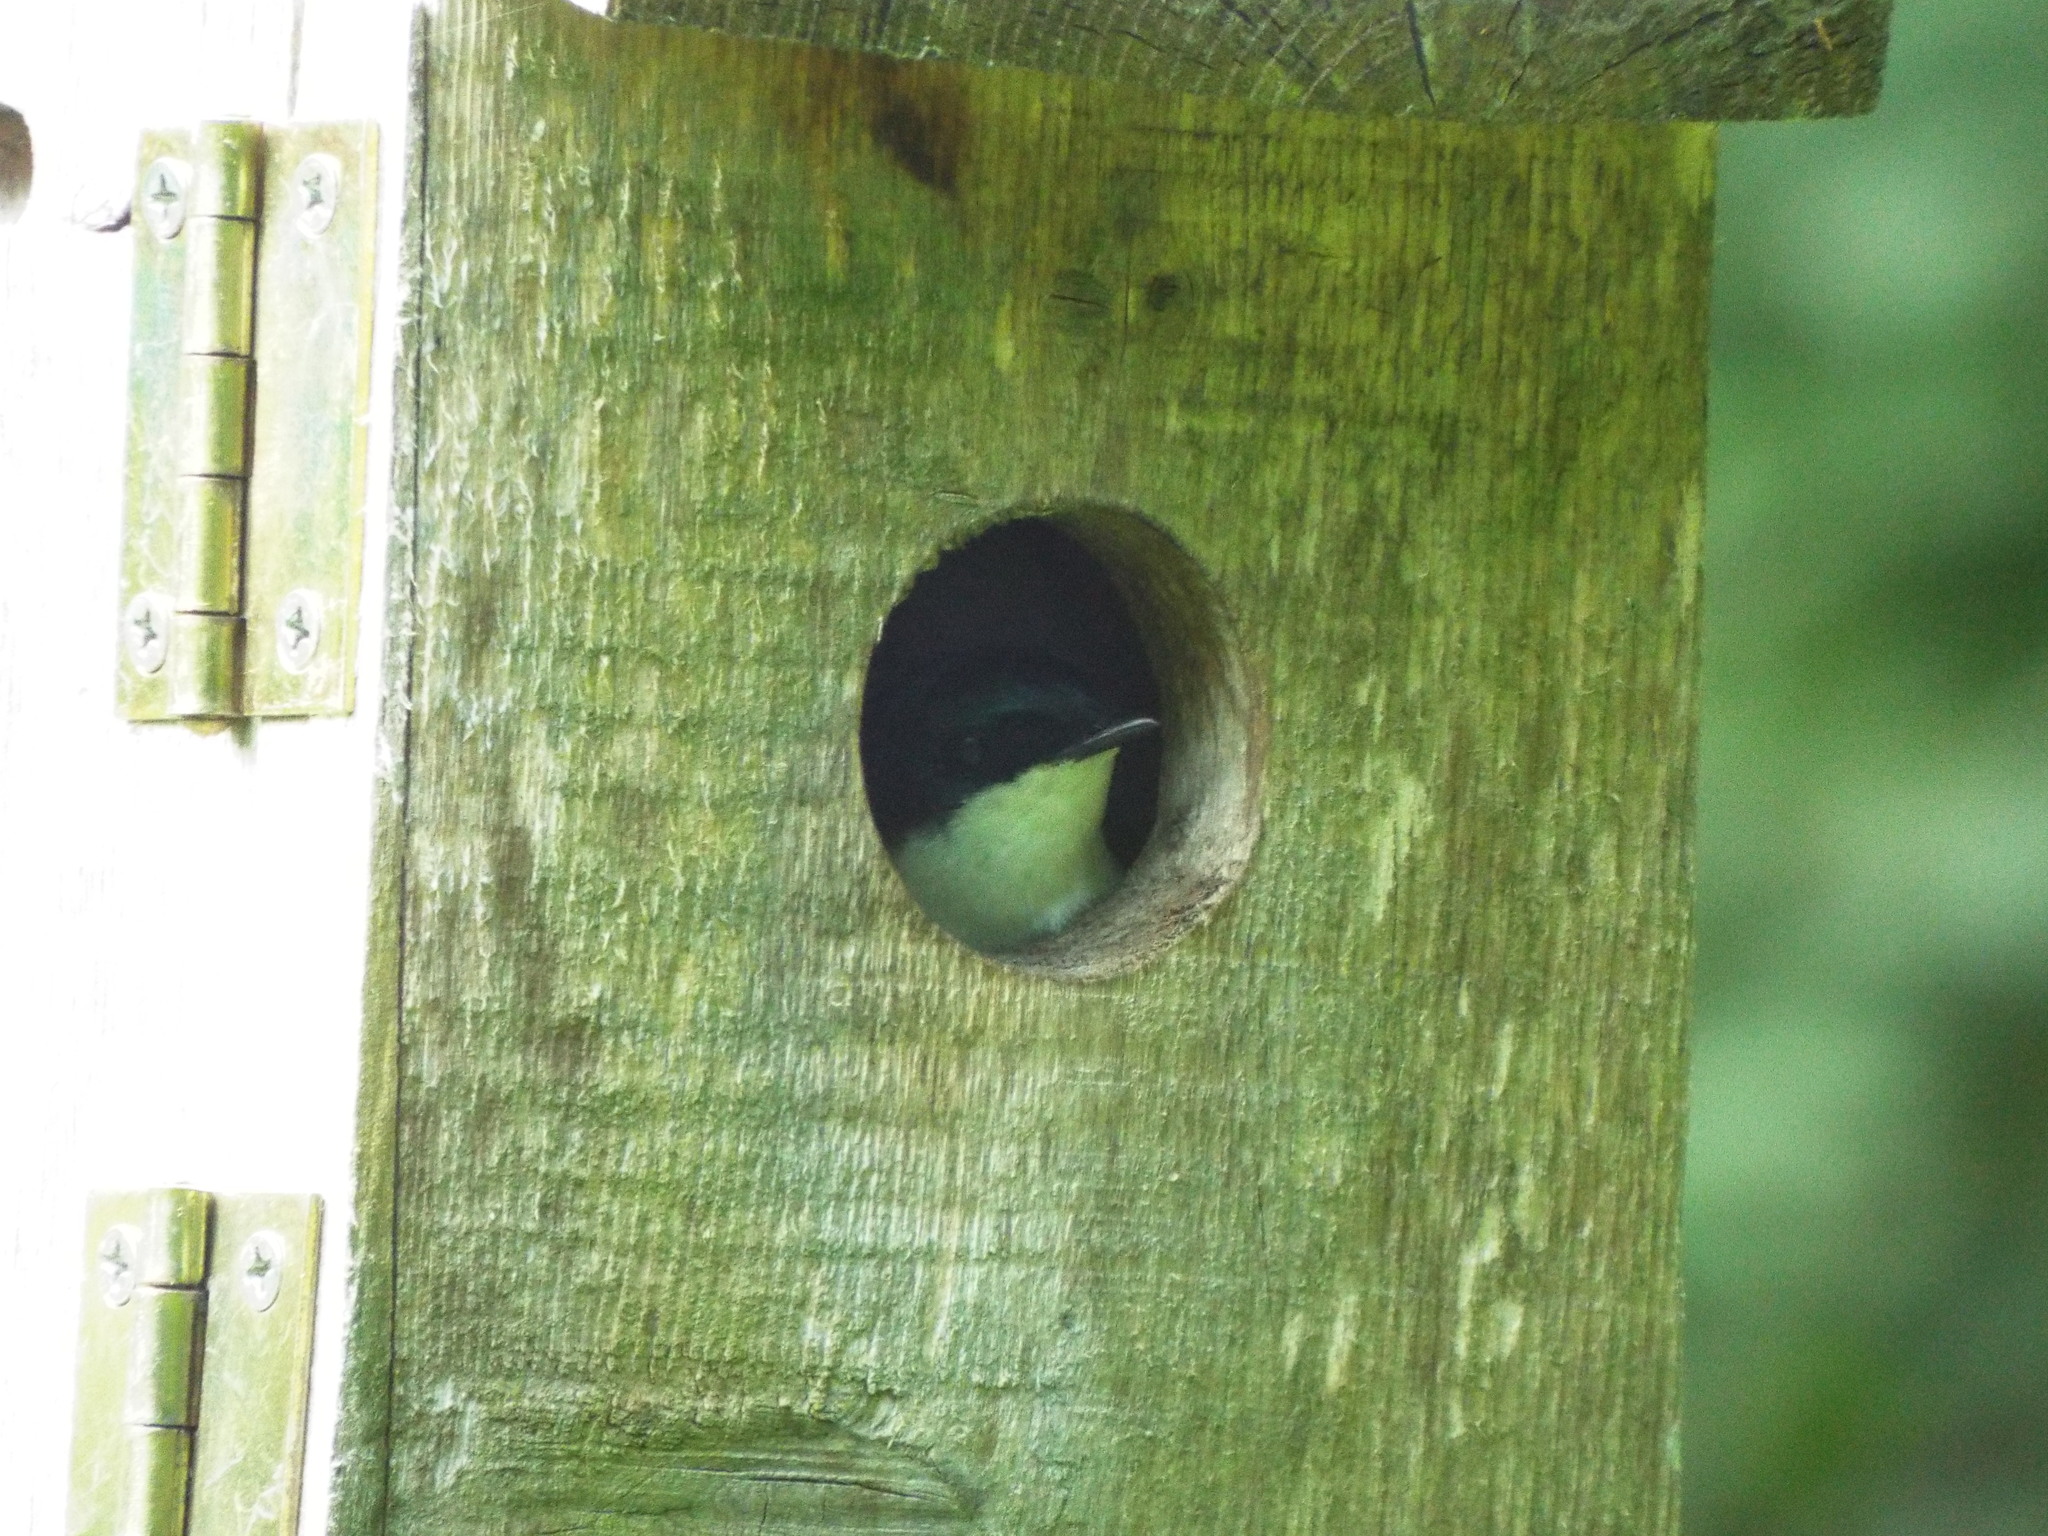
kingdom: Animalia
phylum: Chordata
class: Aves
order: Passeriformes
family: Hirundinidae
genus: Tachycineta
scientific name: Tachycineta bicolor
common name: Tree swallow
